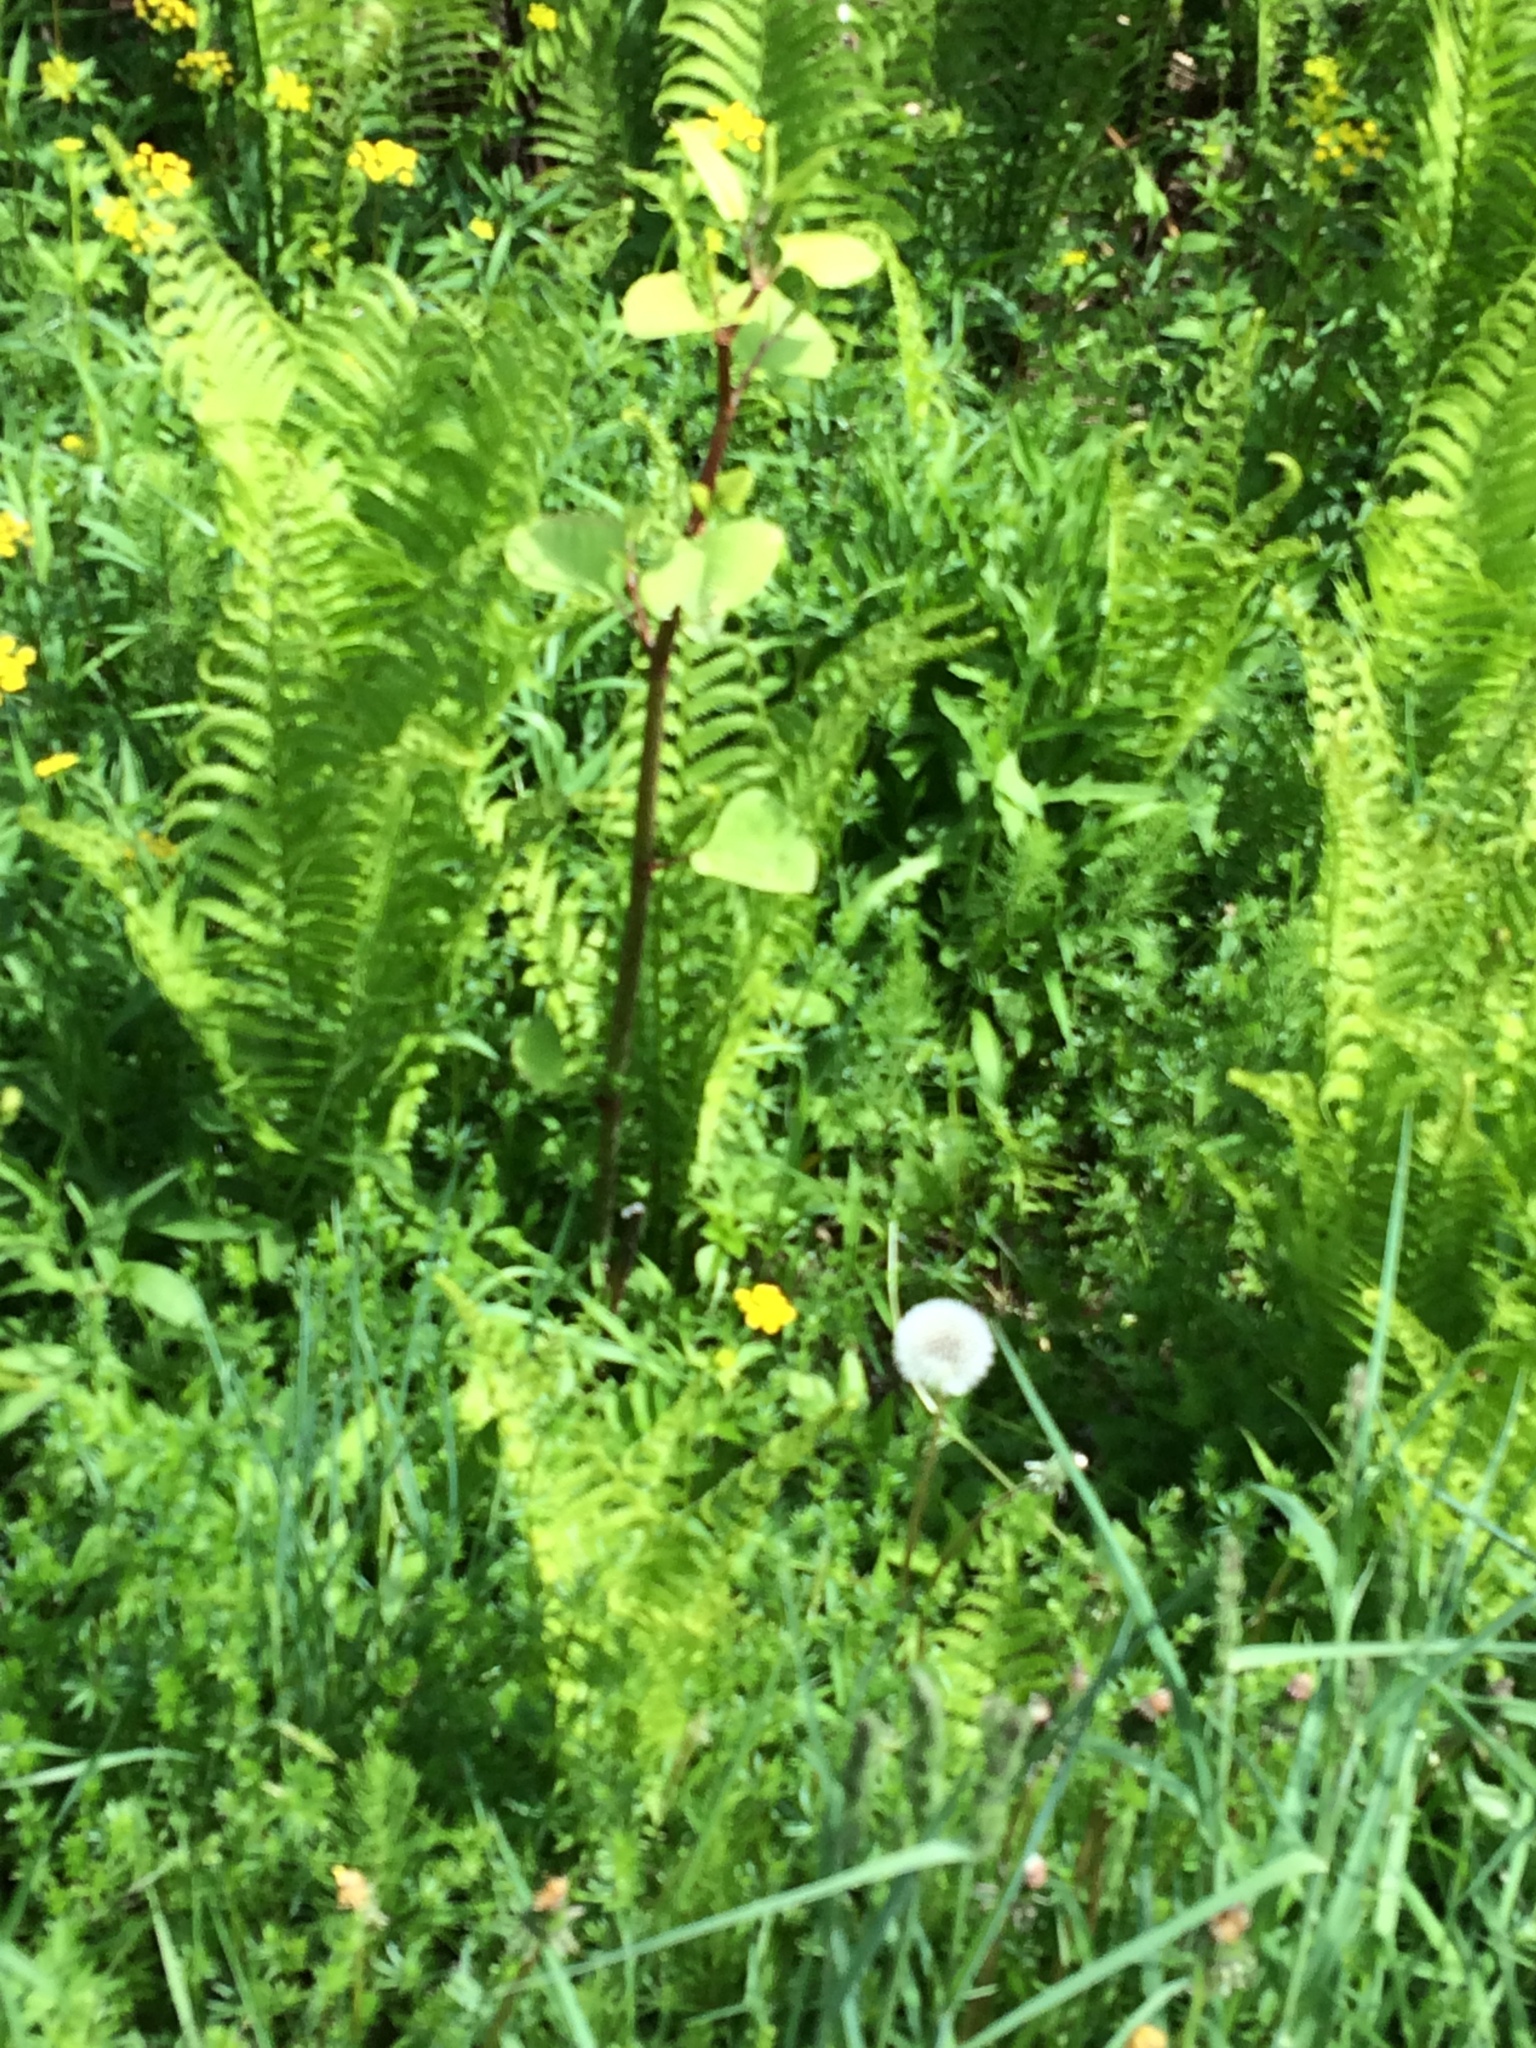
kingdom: Plantae
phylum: Tracheophyta
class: Magnoliopsida
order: Caryophyllales
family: Polygonaceae
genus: Reynoutria
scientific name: Reynoutria japonica
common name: Japanese knotweed
